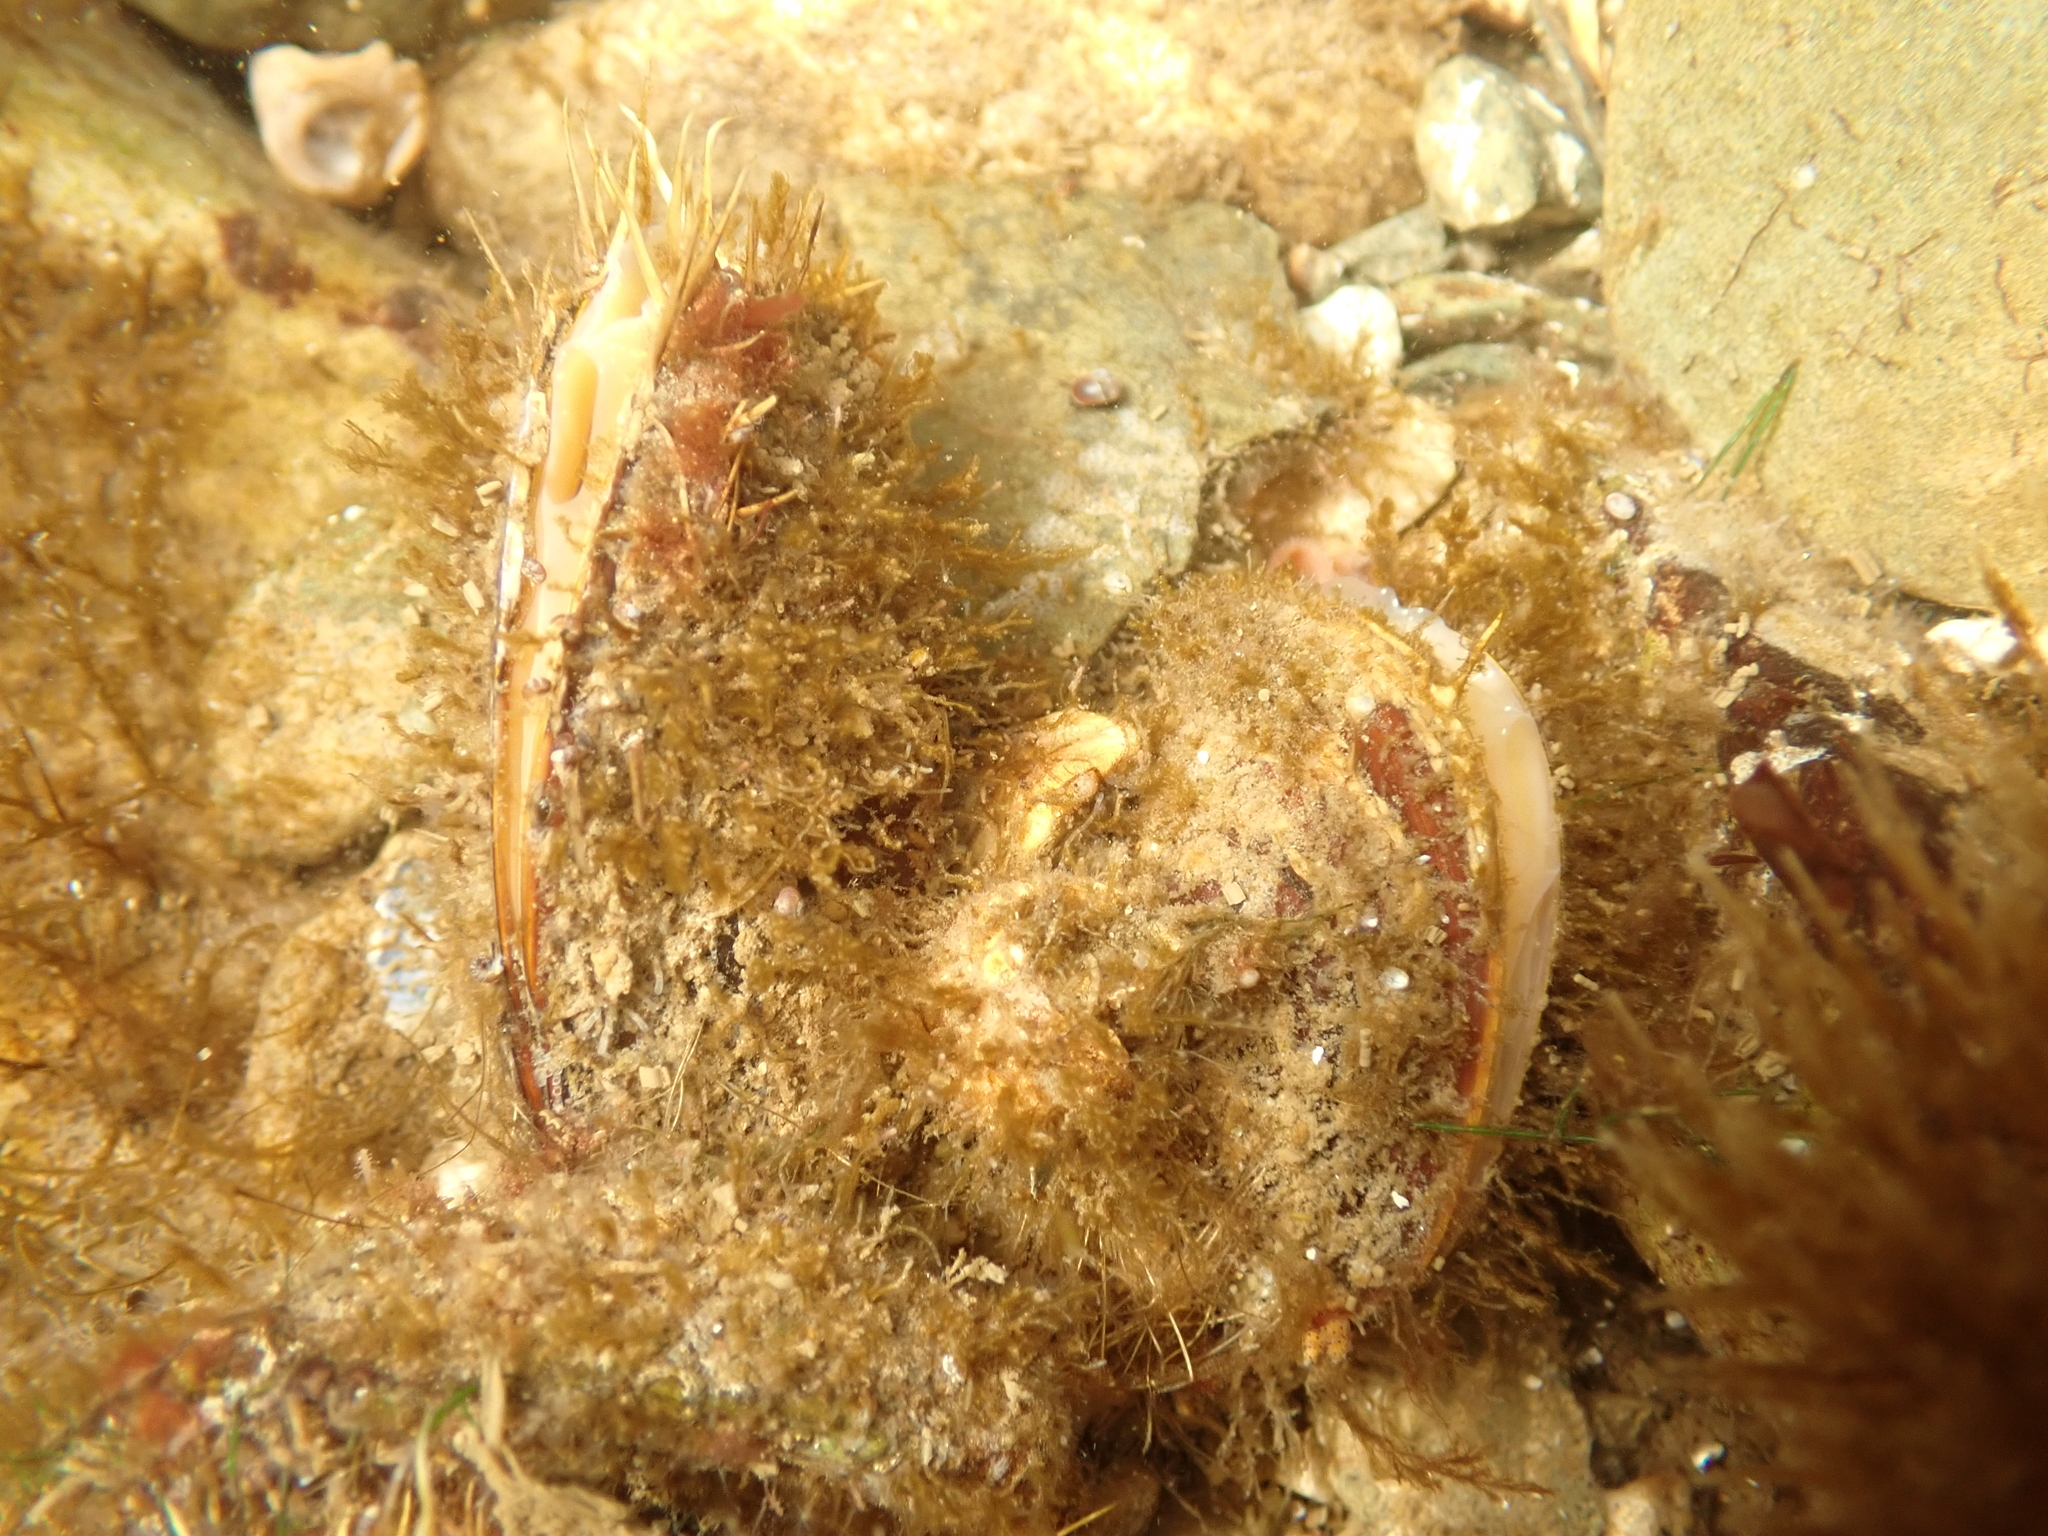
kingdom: Animalia
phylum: Mollusca
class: Bivalvia
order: Mytilida
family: Mytilidae
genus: Modiolus
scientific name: Modiolus modiolus
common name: Horse-mussel
